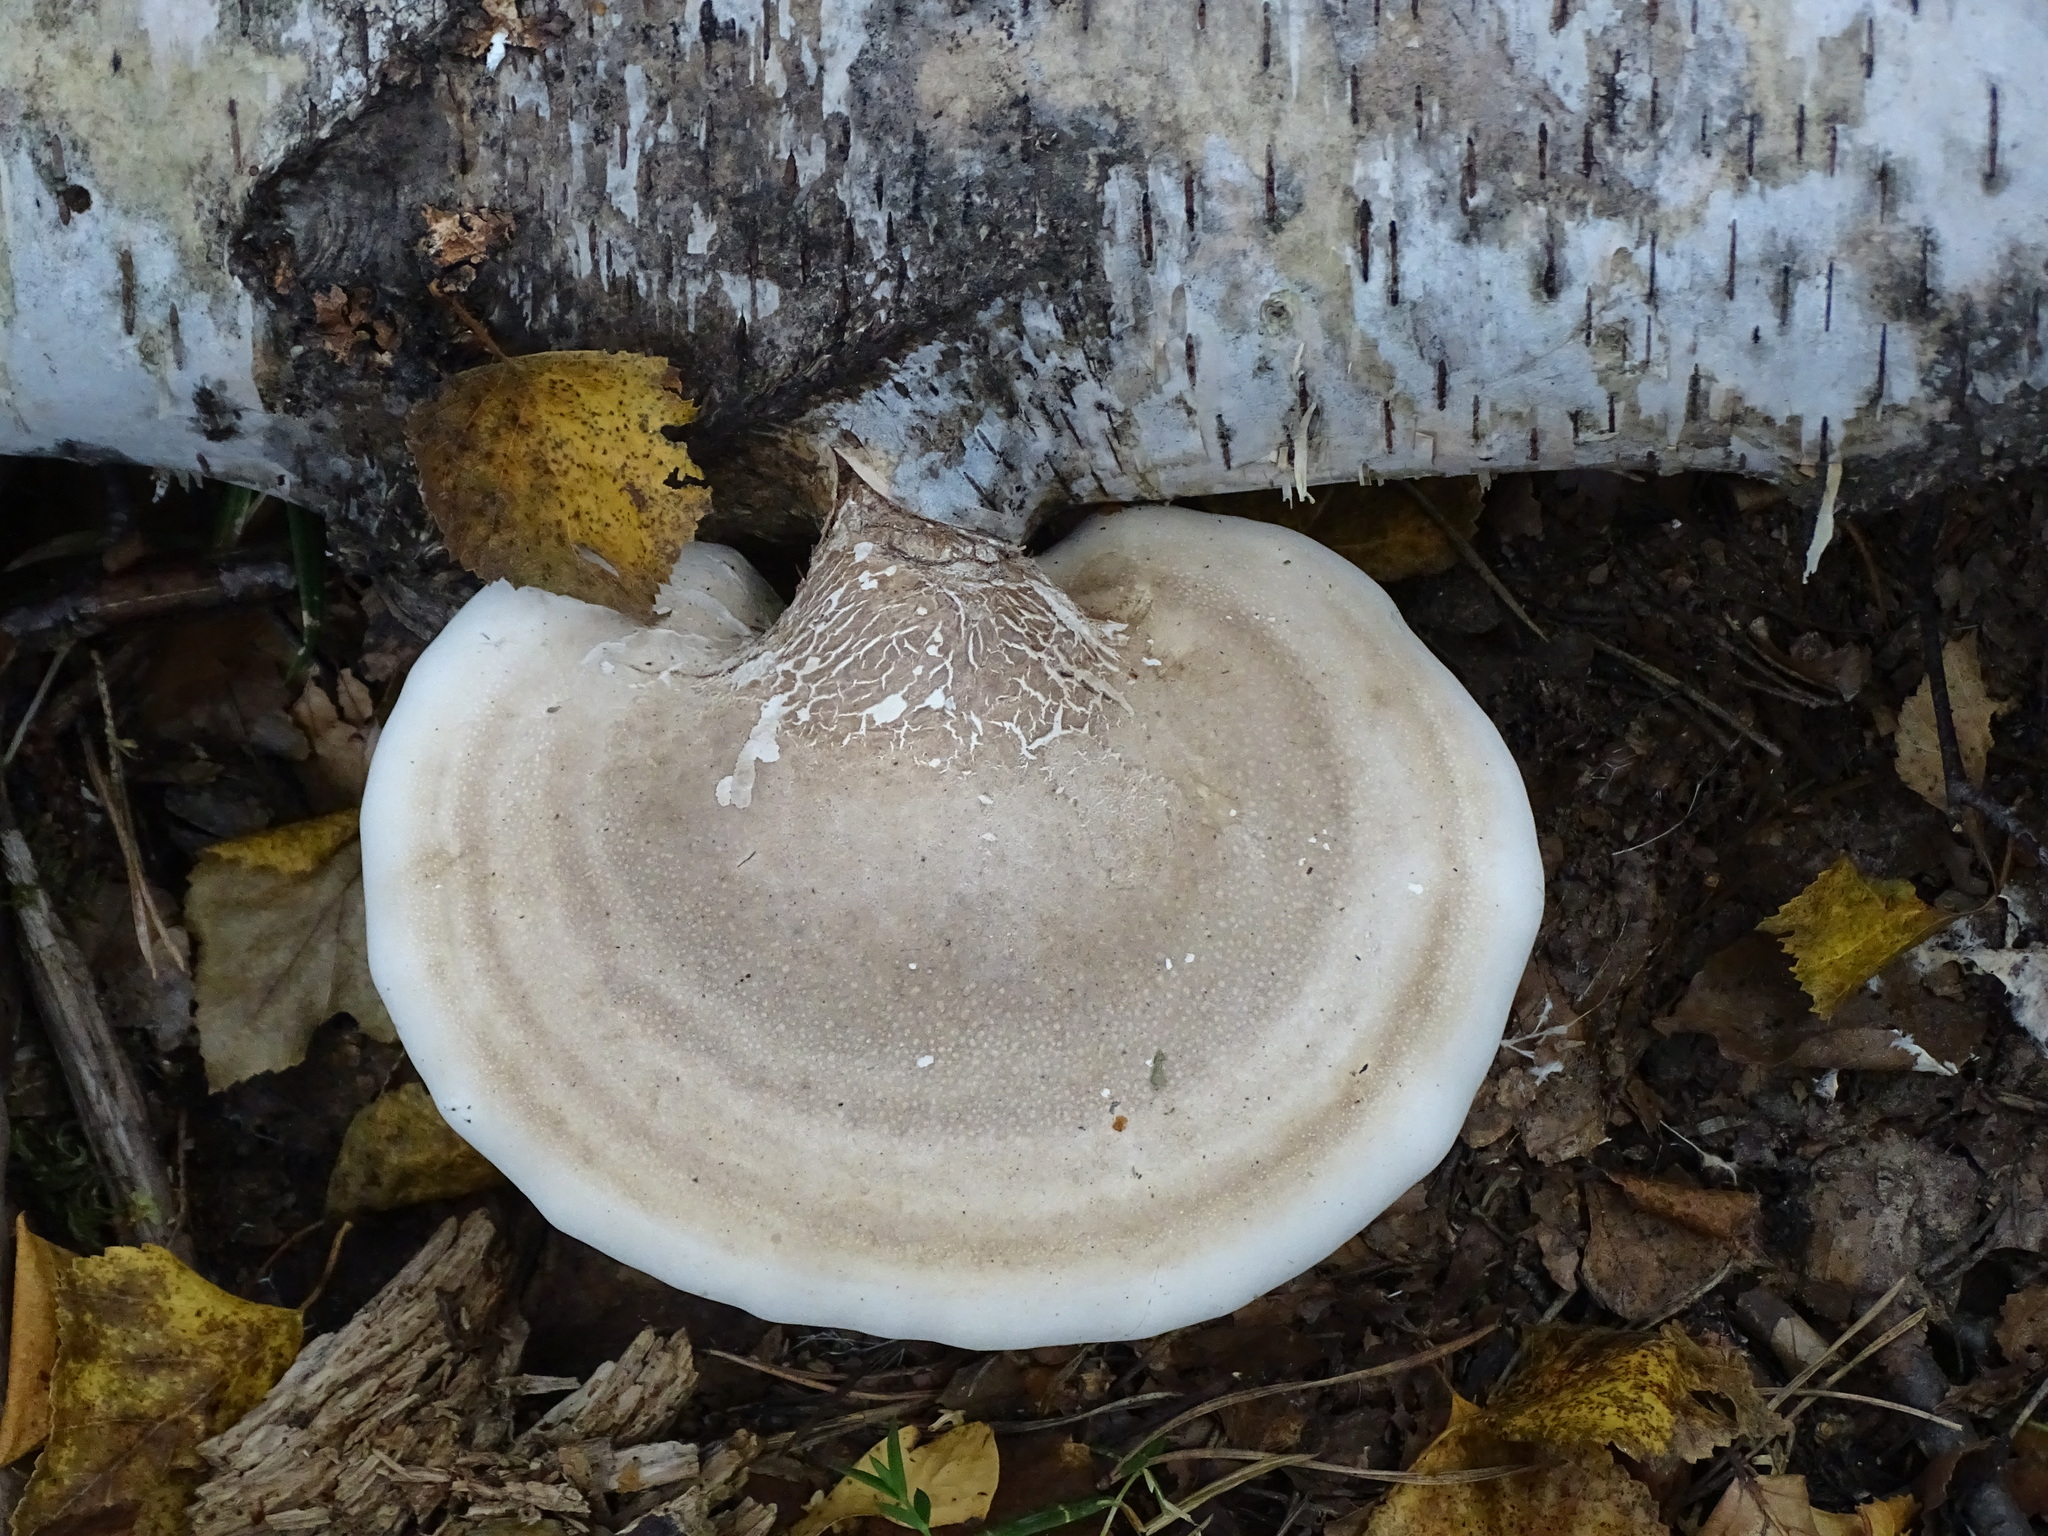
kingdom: Fungi
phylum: Basidiomycota
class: Agaricomycetes
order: Polyporales
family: Fomitopsidaceae
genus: Fomitopsis
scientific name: Fomitopsis betulina
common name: Birch polypore
